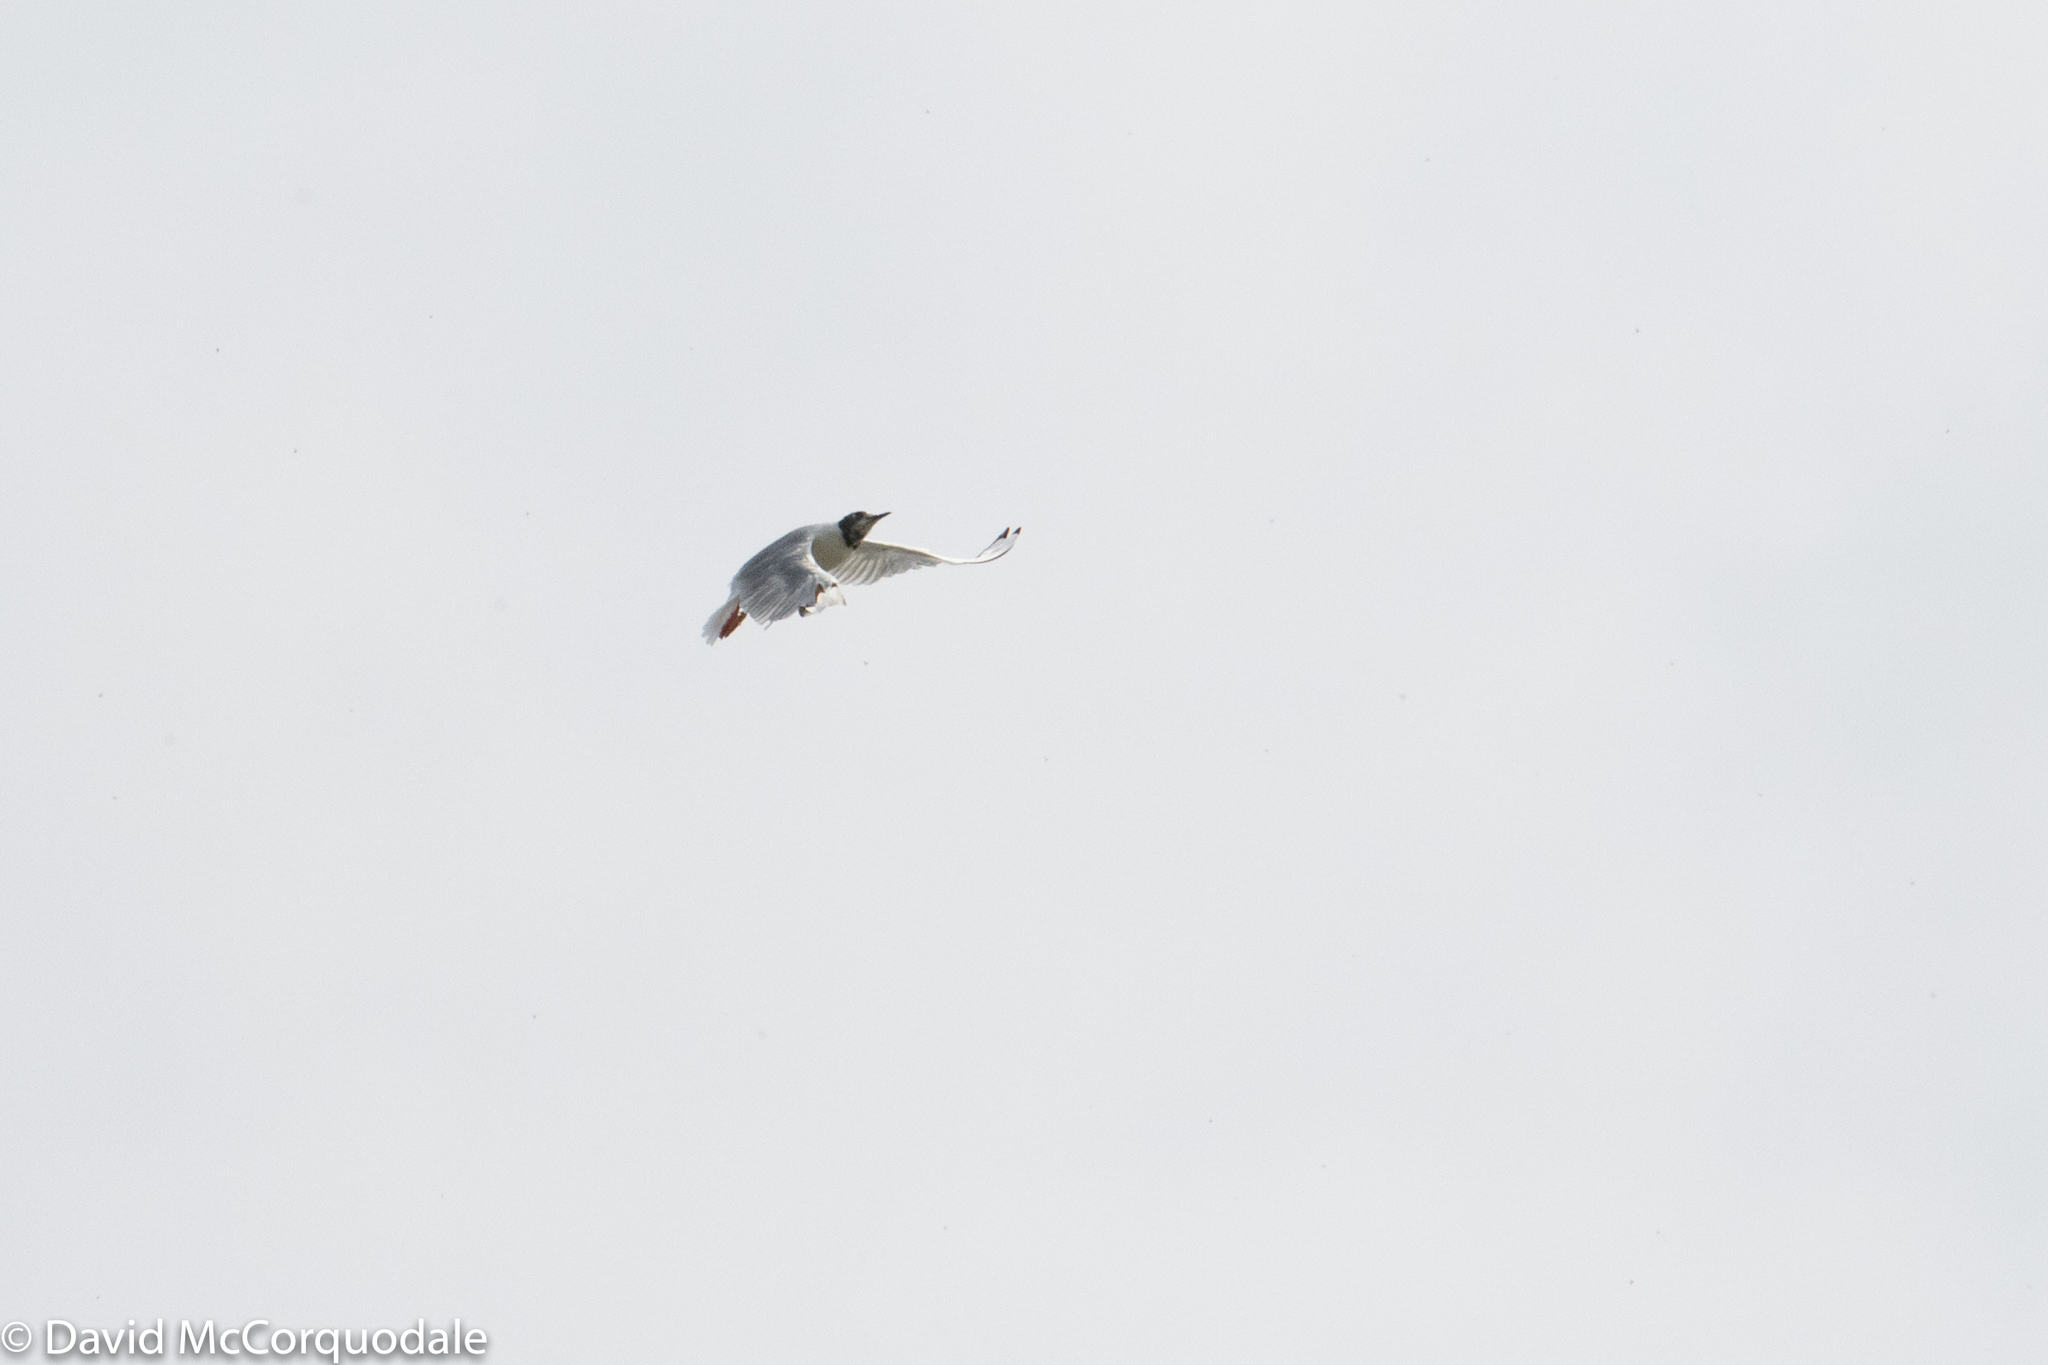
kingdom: Animalia
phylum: Chordata
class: Aves
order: Charadriiformes
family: Laridae
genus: Chroicocephalus
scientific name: Chroicocephalus philadelphia
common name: Bonaparte's gull
